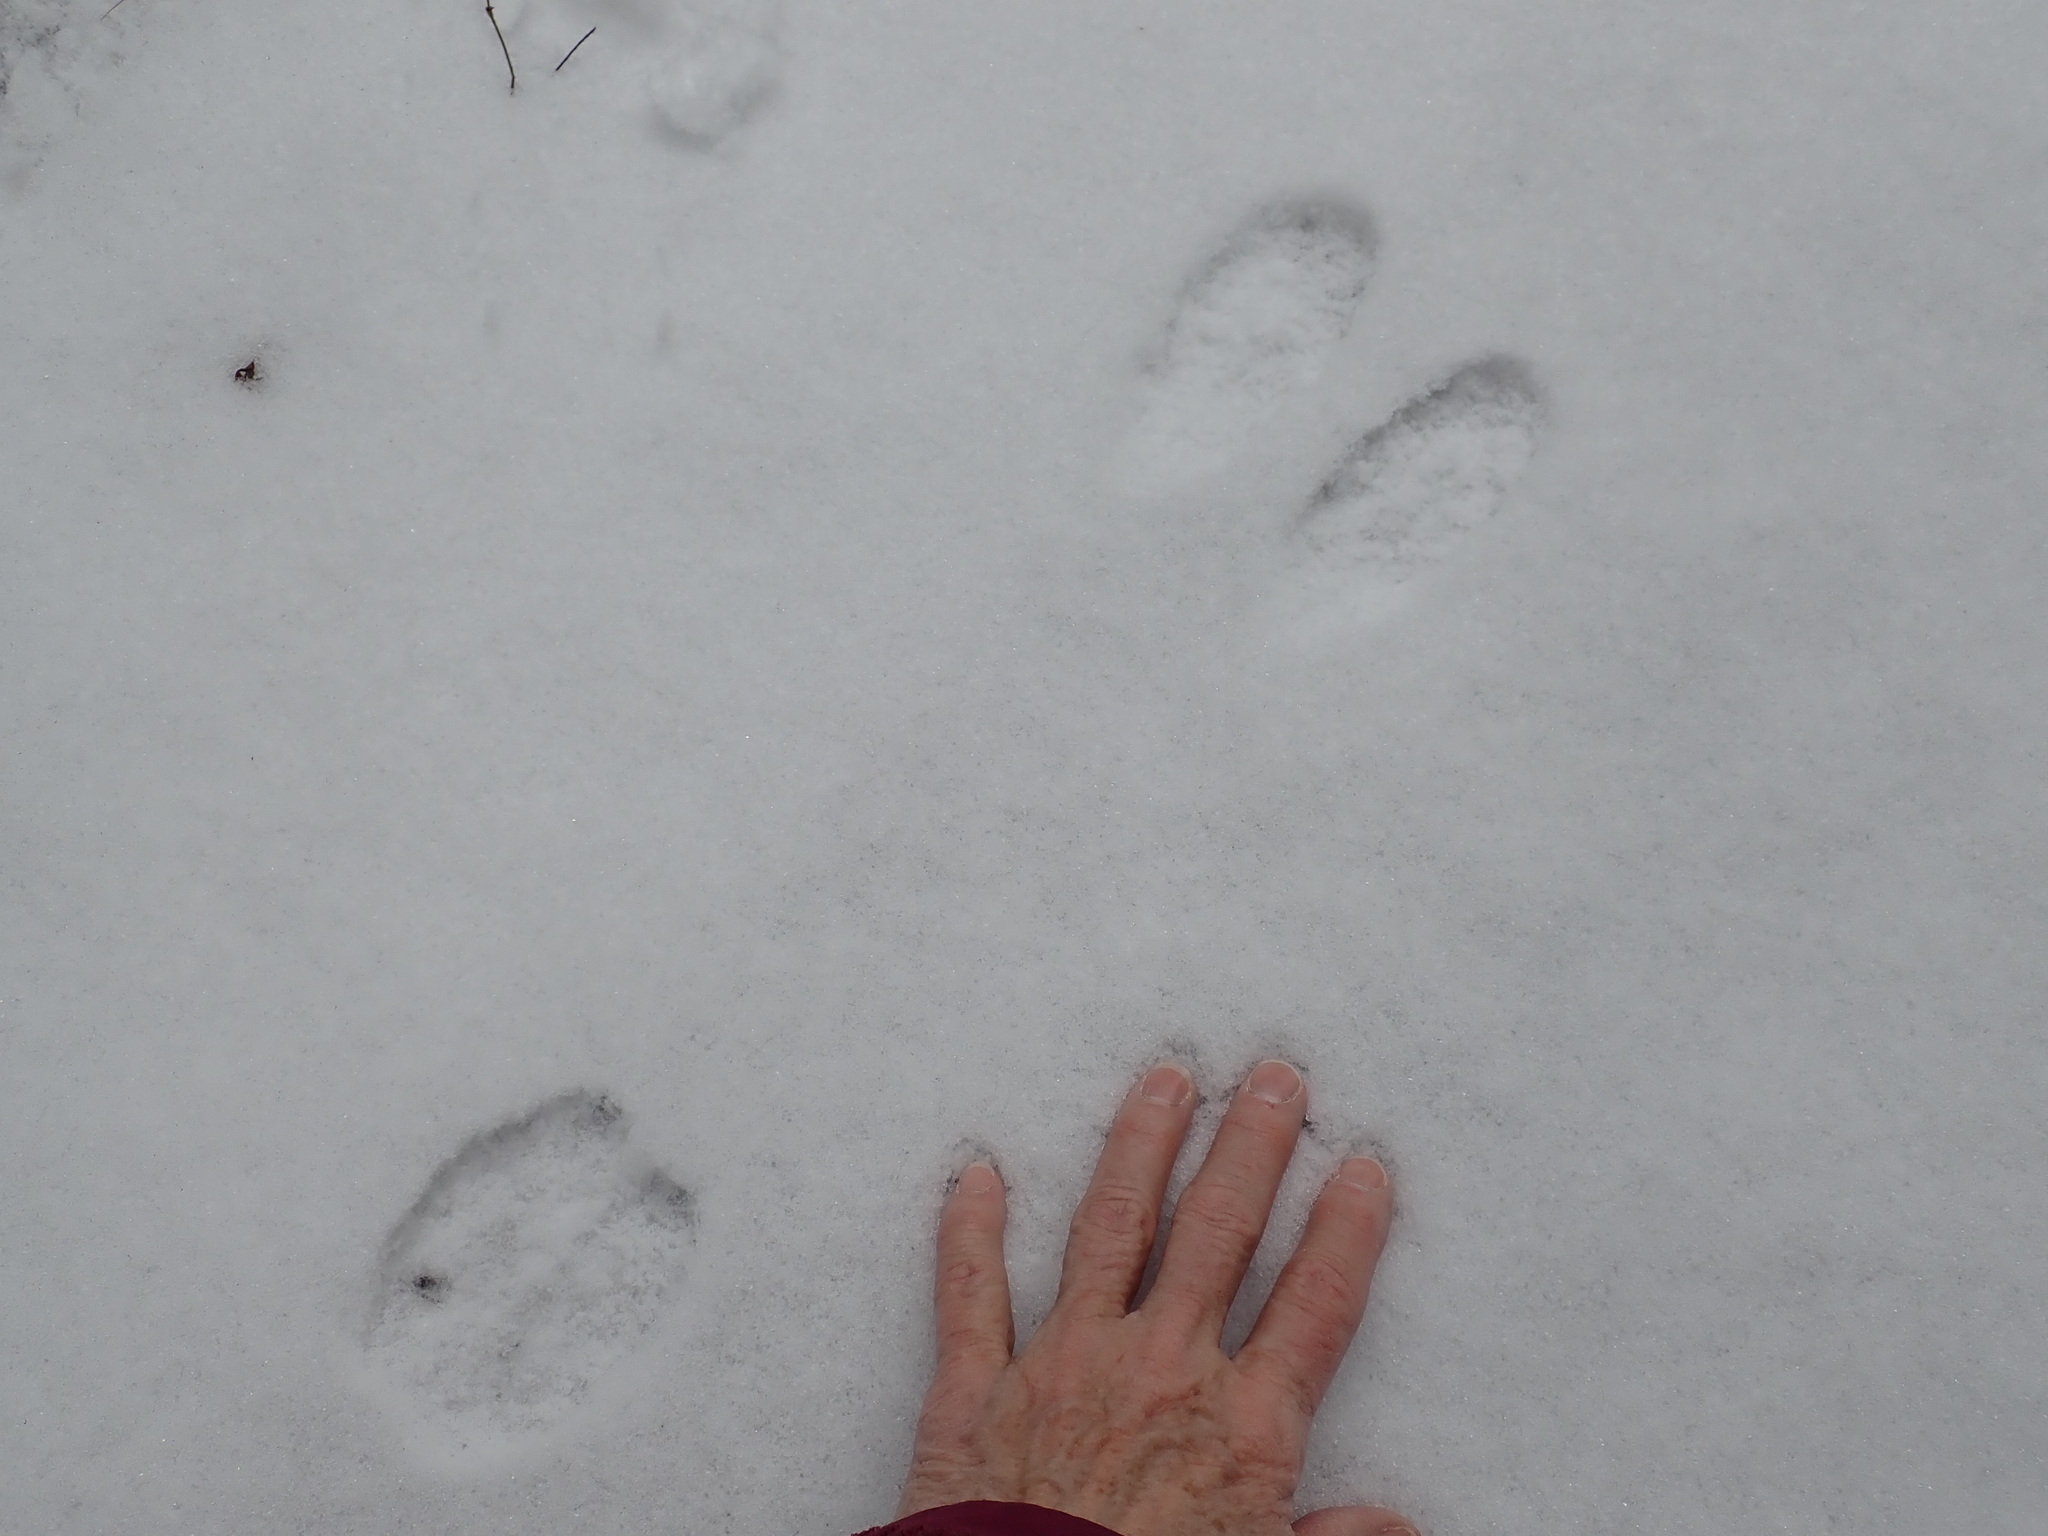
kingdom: Animalia
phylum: Chordata
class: Mammalia
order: Lagomorpha
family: Leporidae
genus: Lepus
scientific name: Lepus americanus
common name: Snowshoe hare
